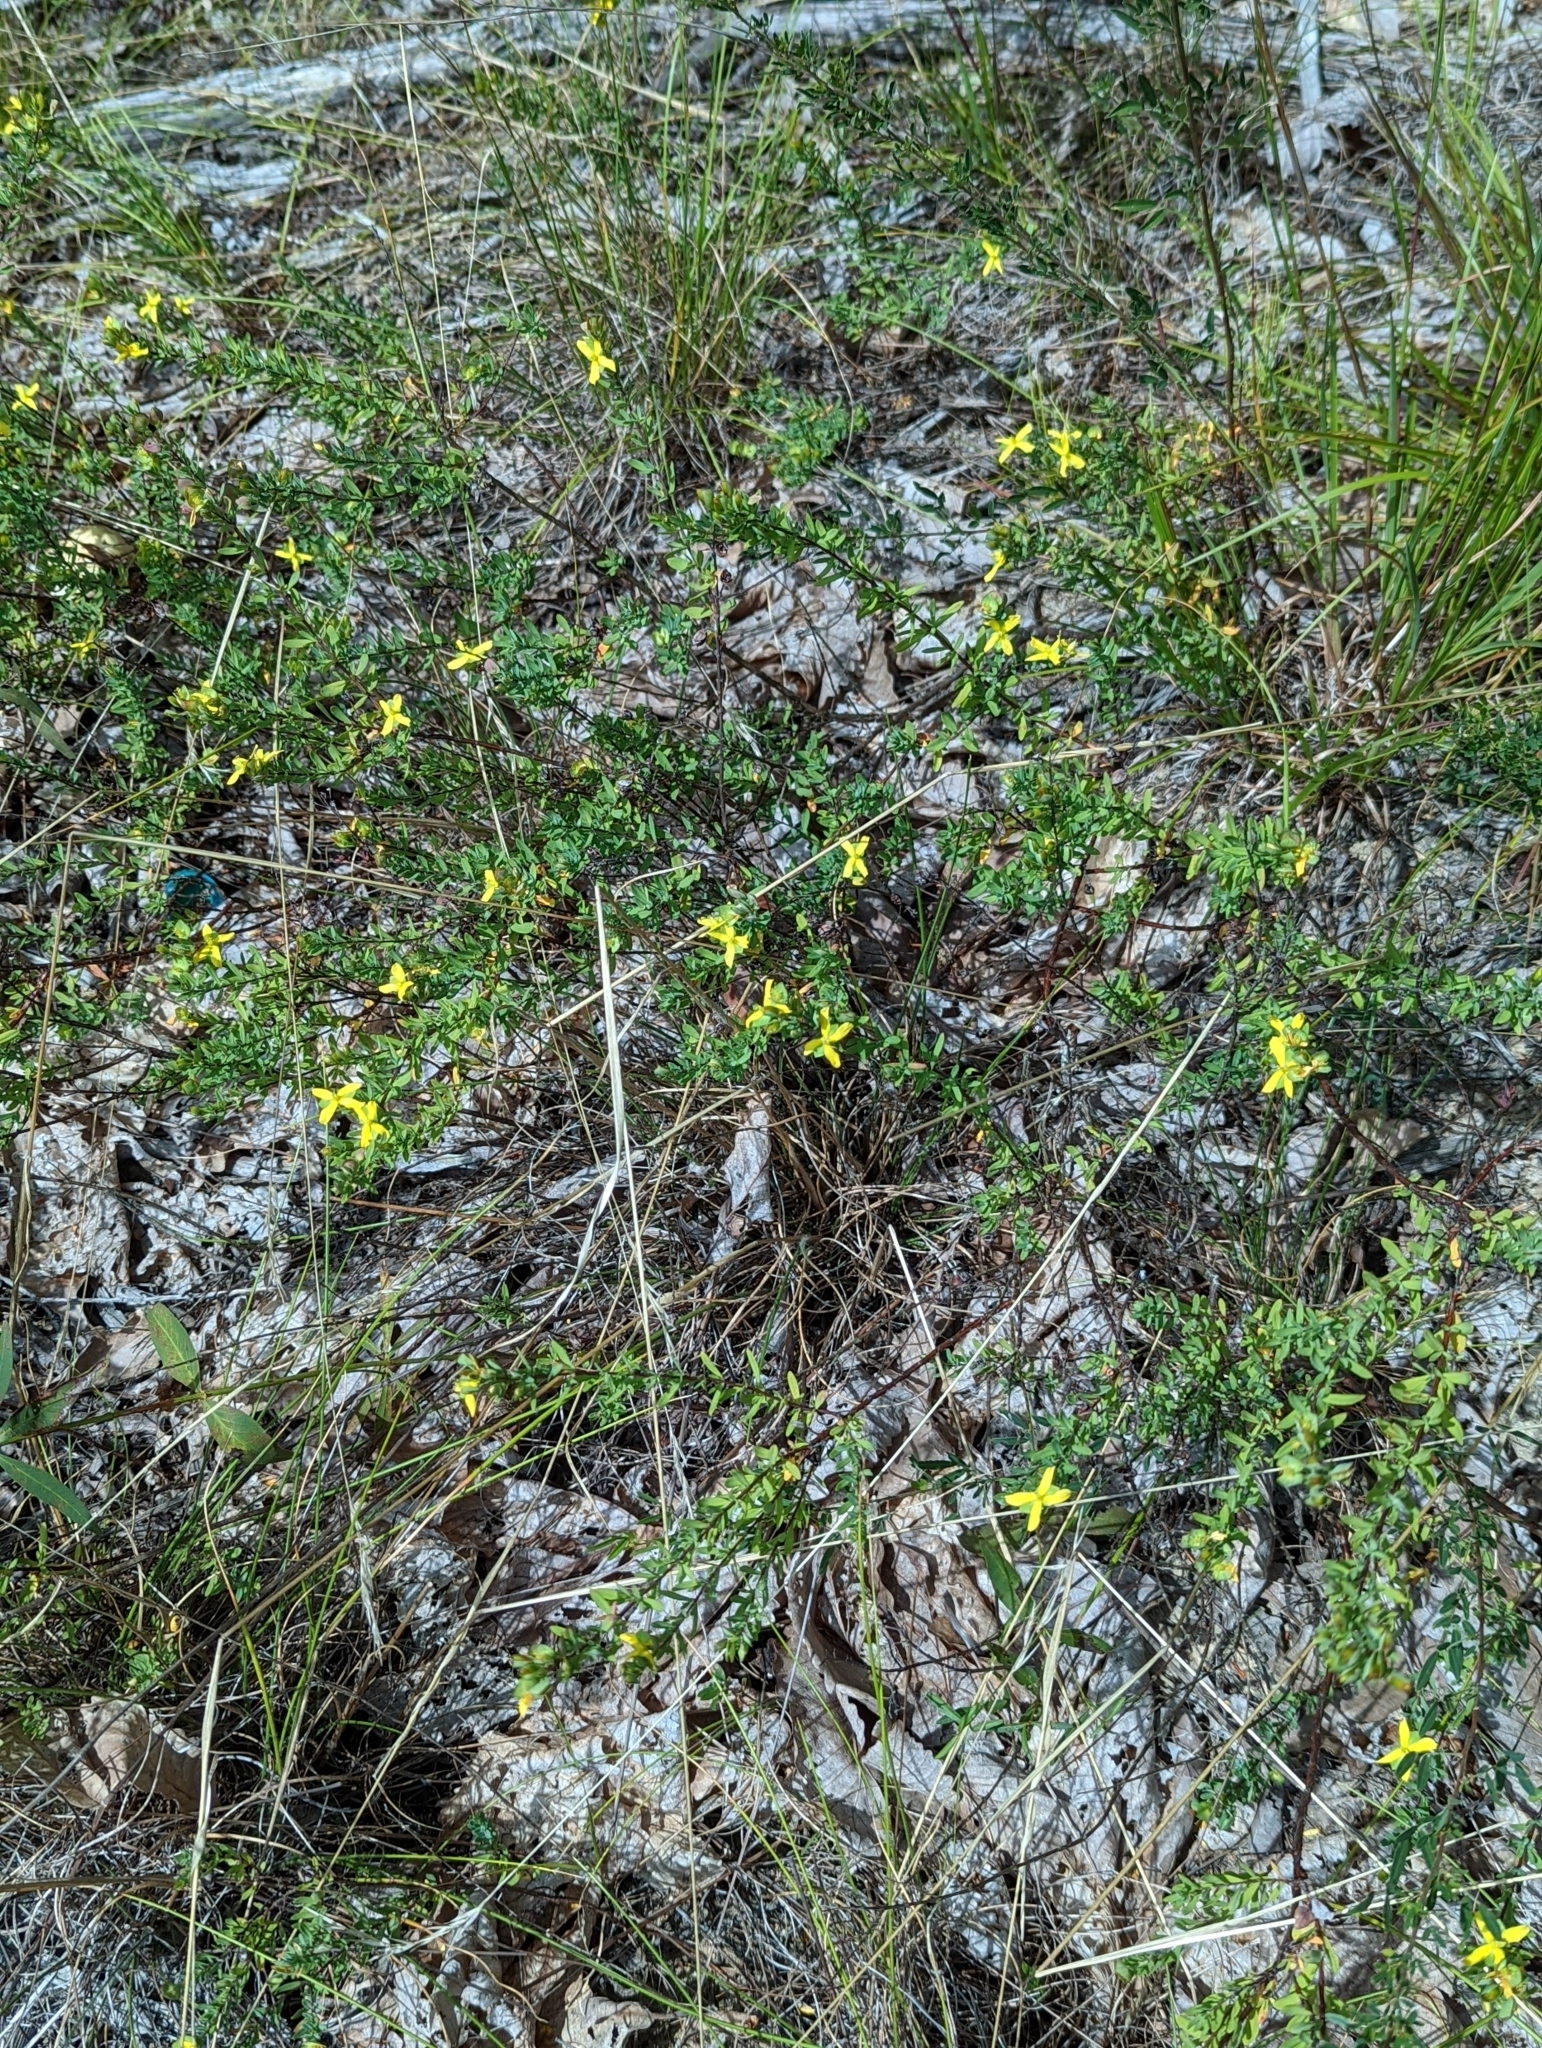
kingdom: Plantae
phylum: Tracheophyta
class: Magnoliopsida
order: Malpighiales
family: Hypericaceae
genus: Hypericum
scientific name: Hypericum hypericoides
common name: St. andrew's cross
